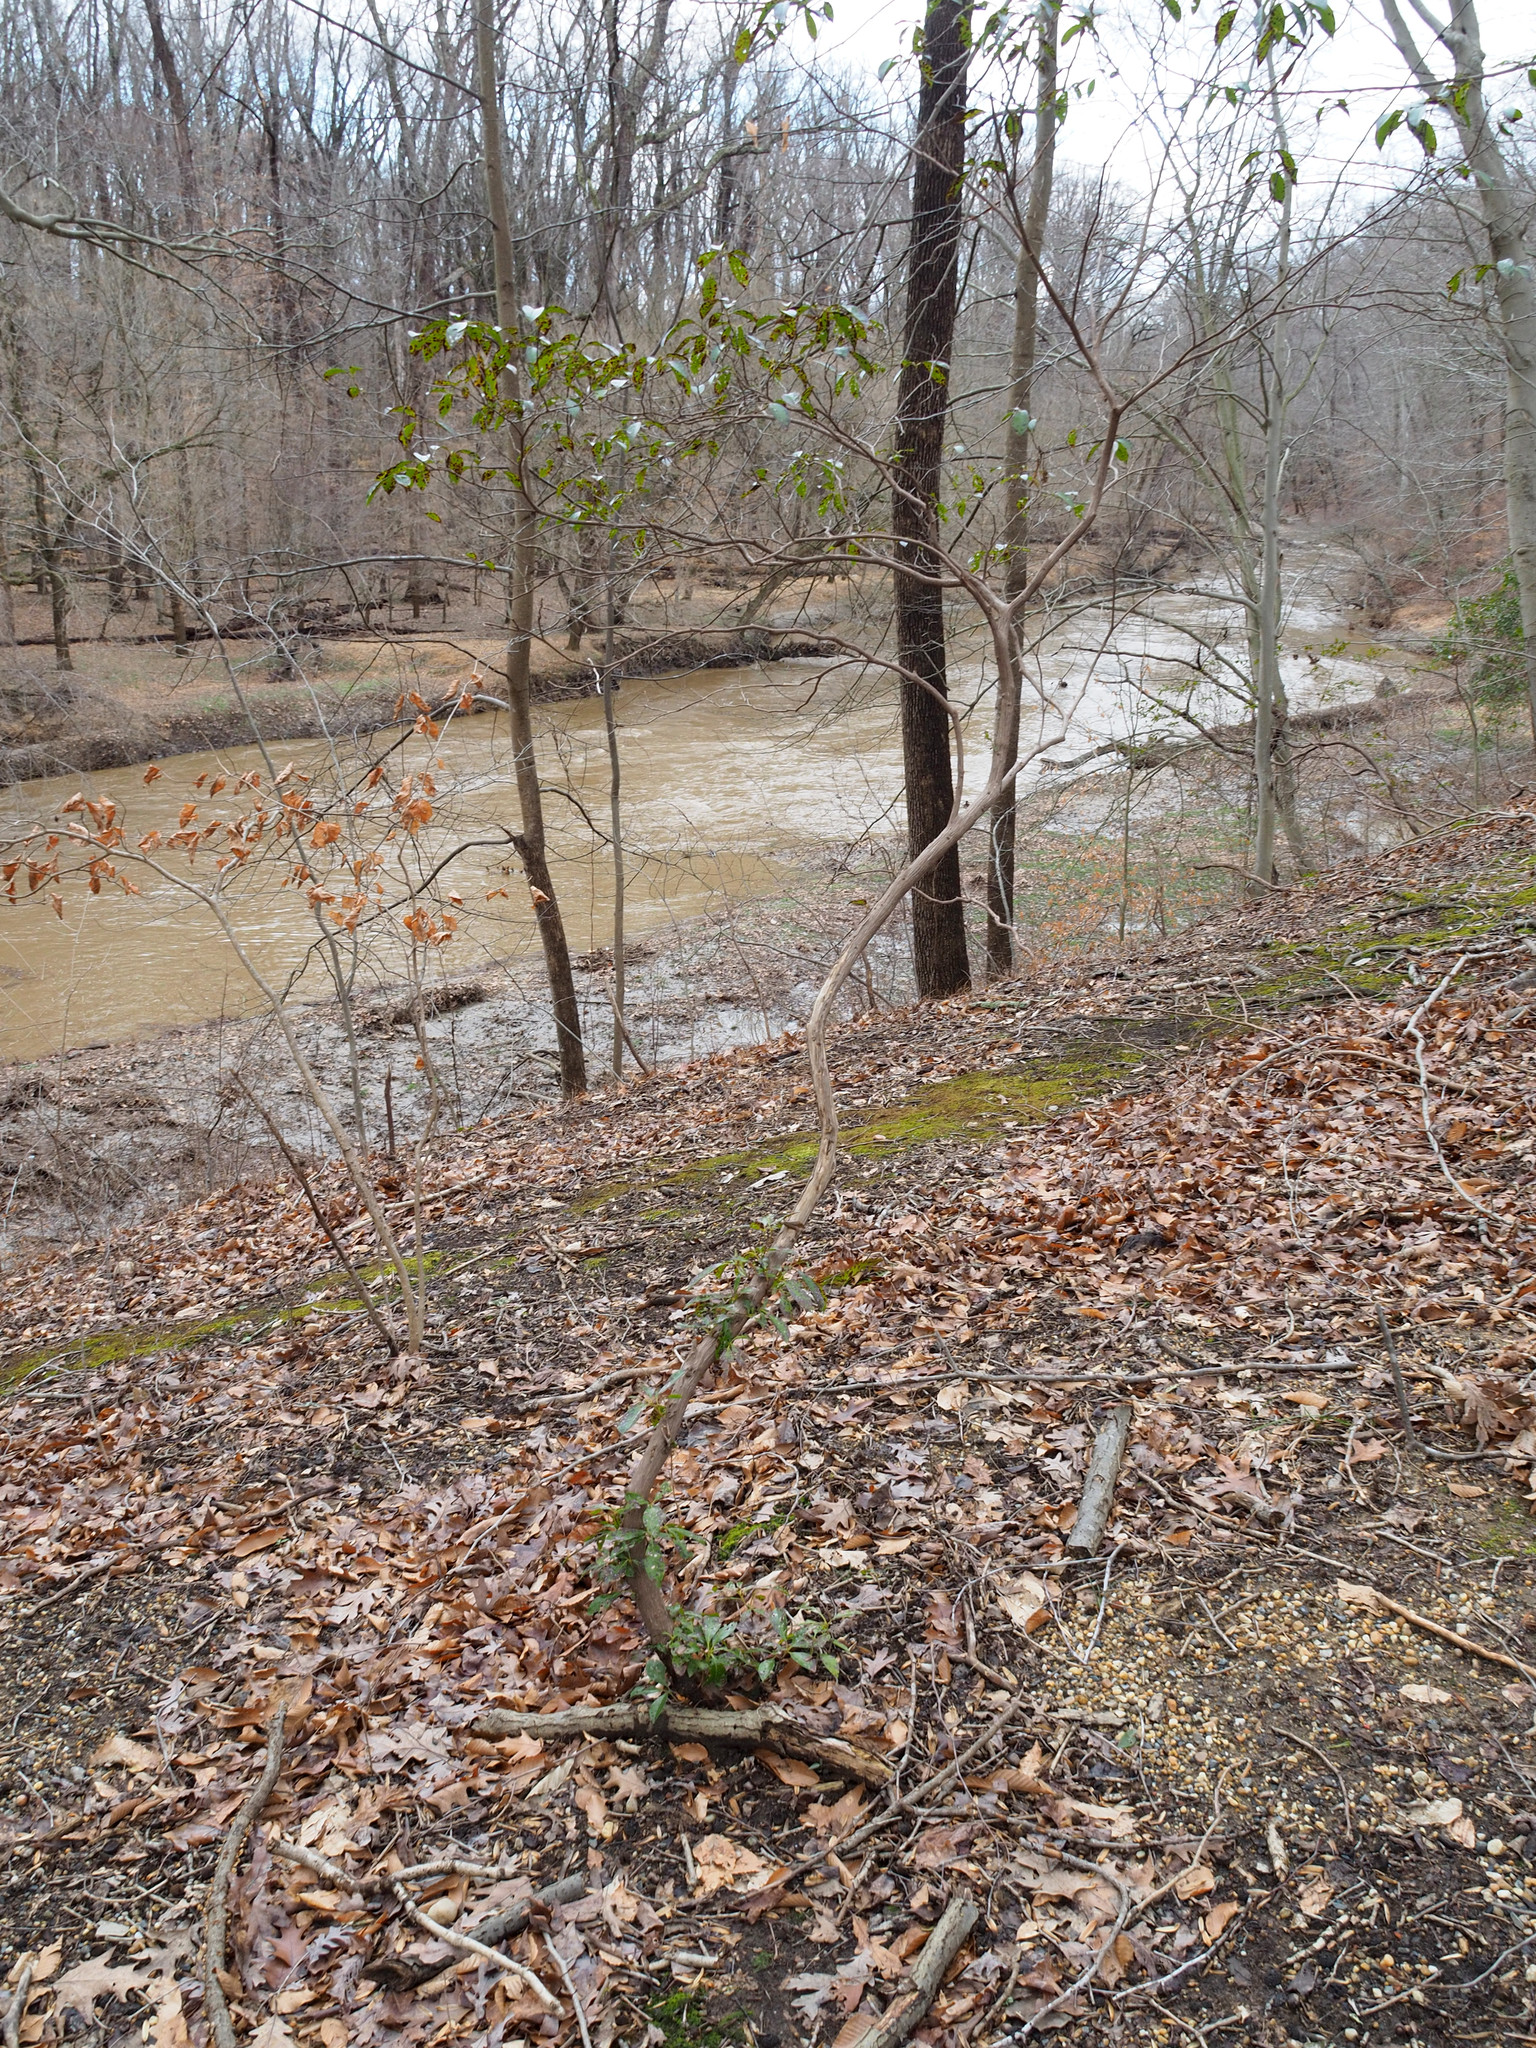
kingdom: Plantae
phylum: Tracheophyta
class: Magnoliopsida
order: Ericales
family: Ericaceae
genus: Kalmia
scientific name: Kalmia latifolia
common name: Mountain-laurel
